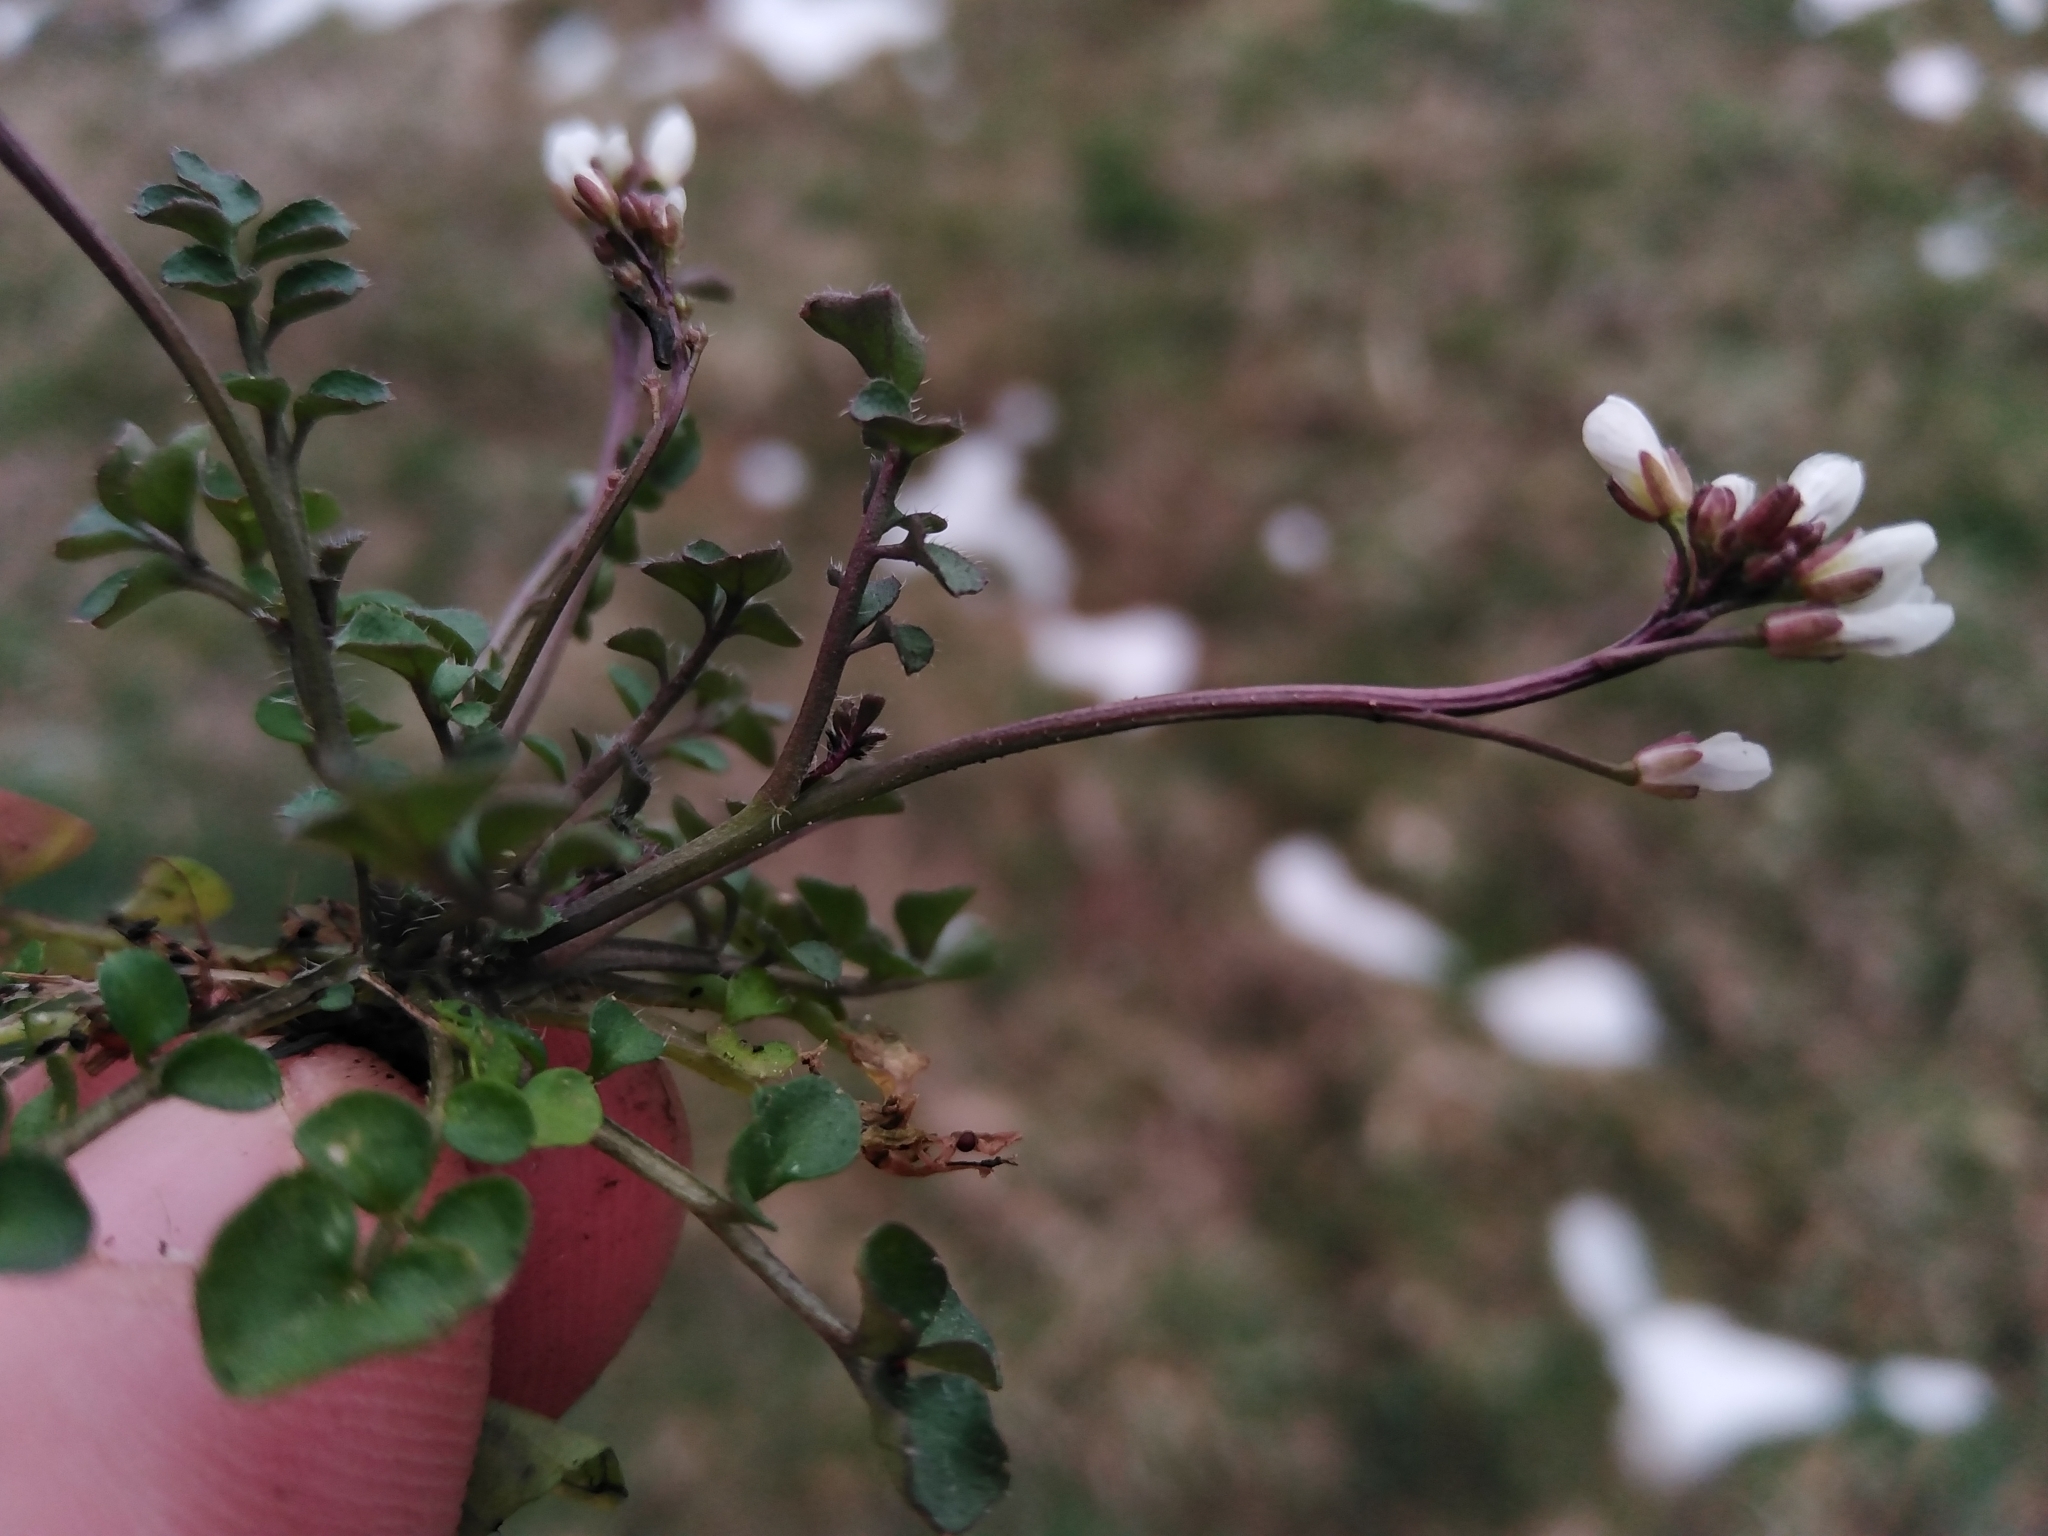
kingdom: Plantae
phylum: Tracheophyta
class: Magnoliopsida
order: Brassicales
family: Brassicaceae
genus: Cardamine
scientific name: Cardamine hirsuta
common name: Hairy bittercress
